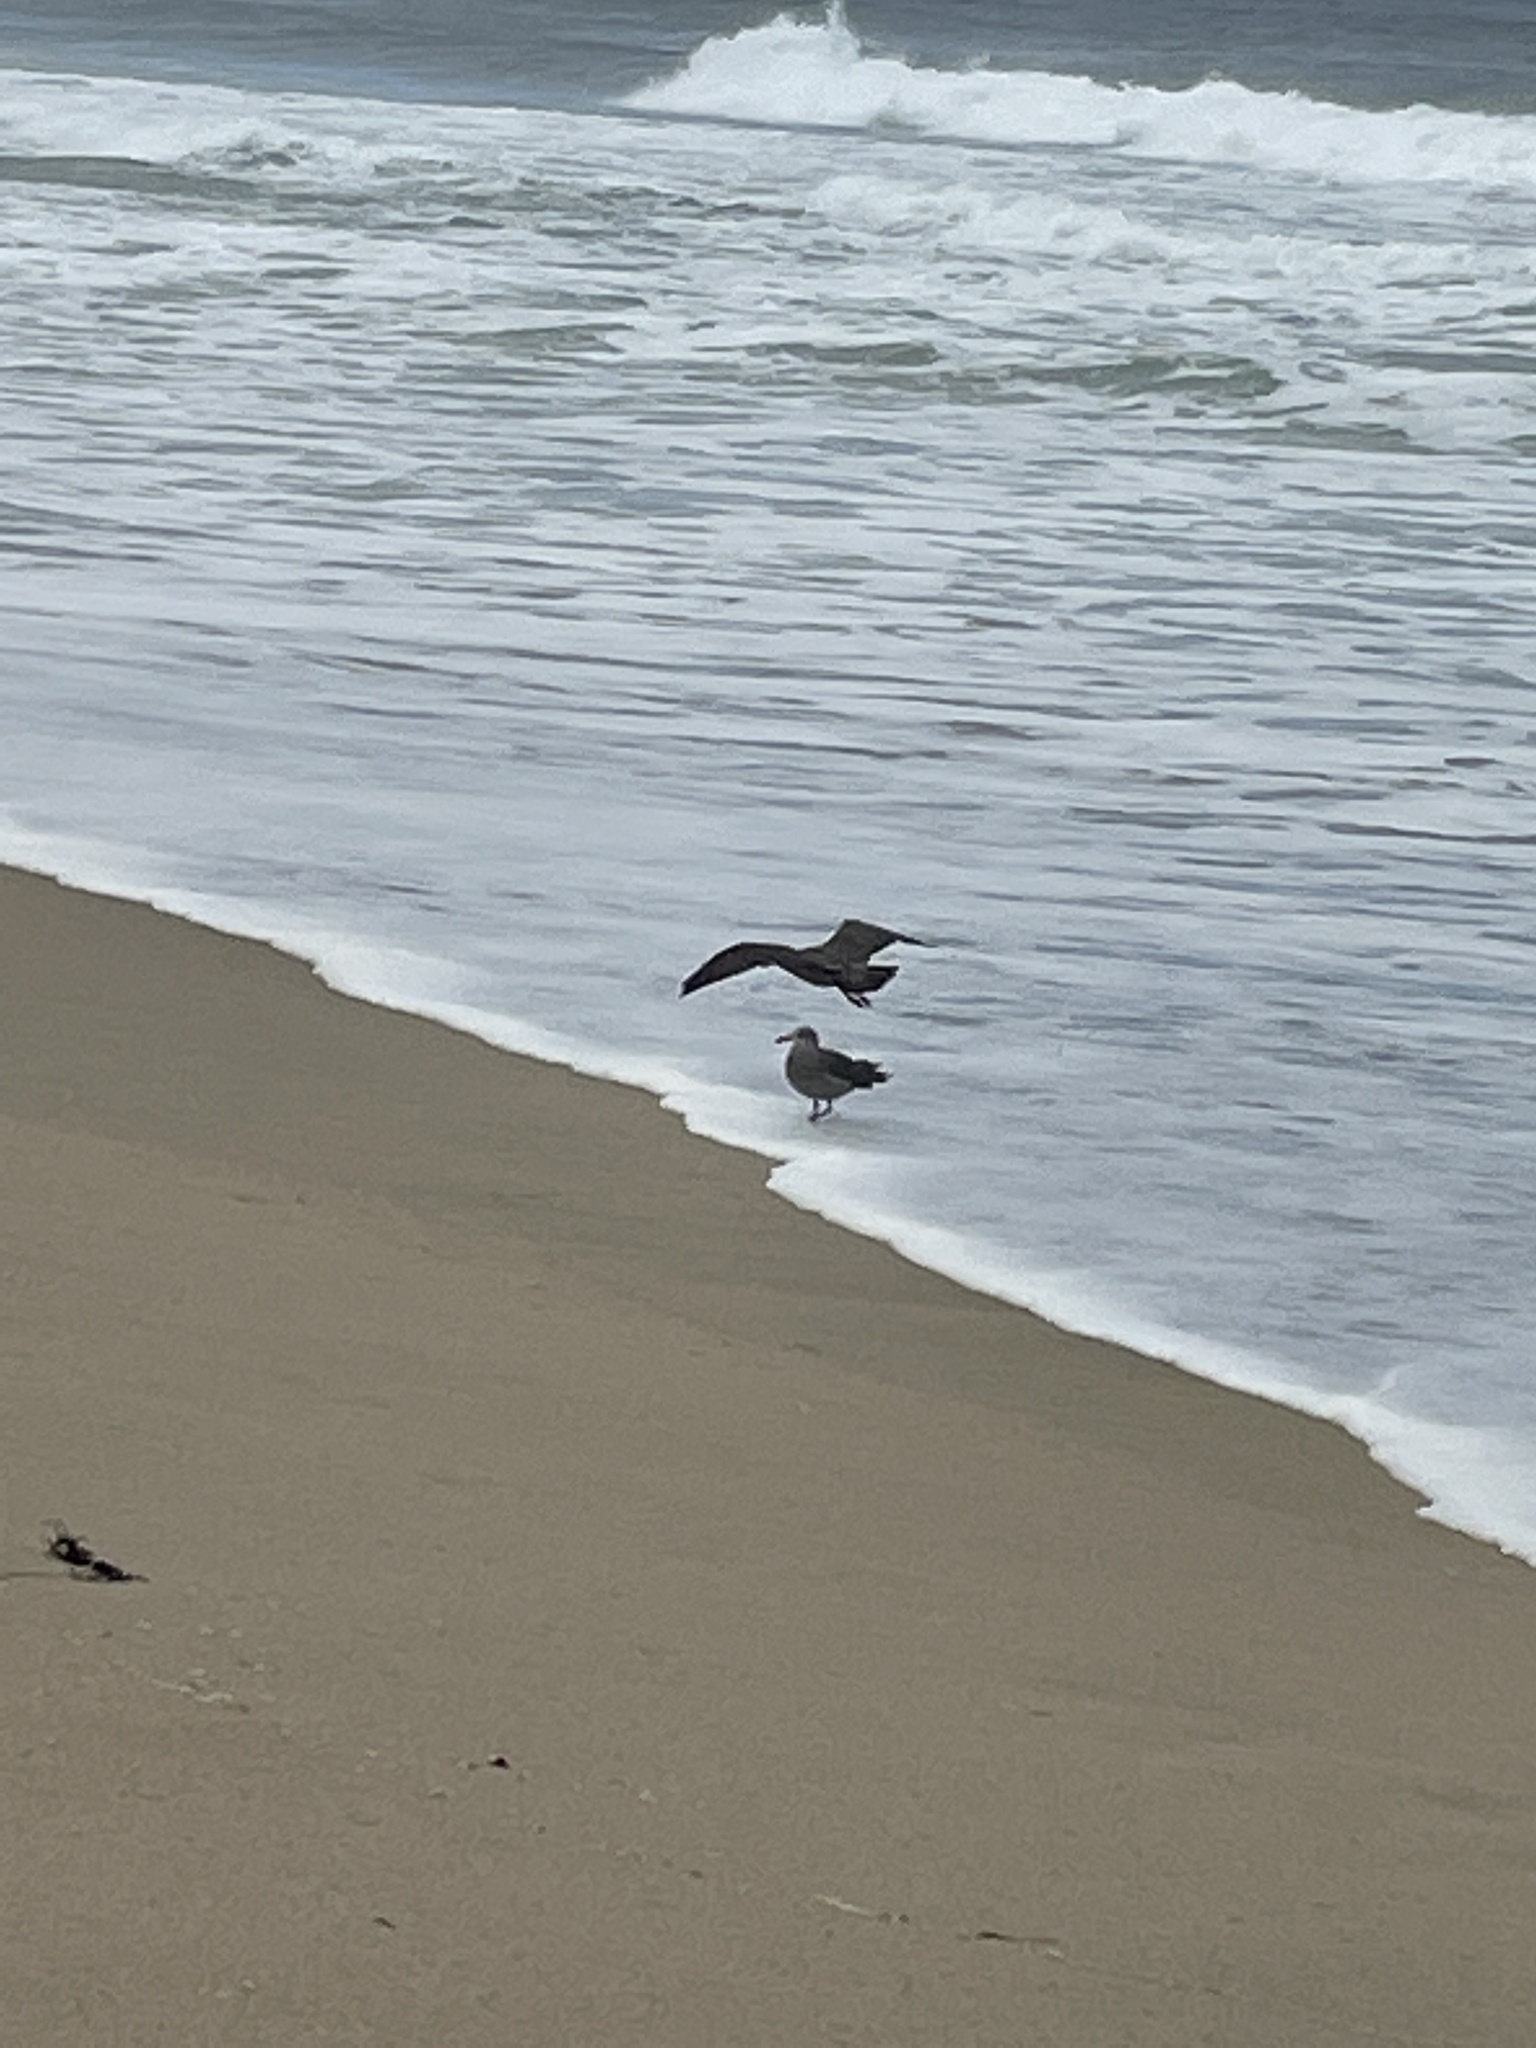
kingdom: Animalia
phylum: Chordata
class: Aves
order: Charadriiformes
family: Laridae
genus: Larus
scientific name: Larus heermanni
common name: Heermann's gull
